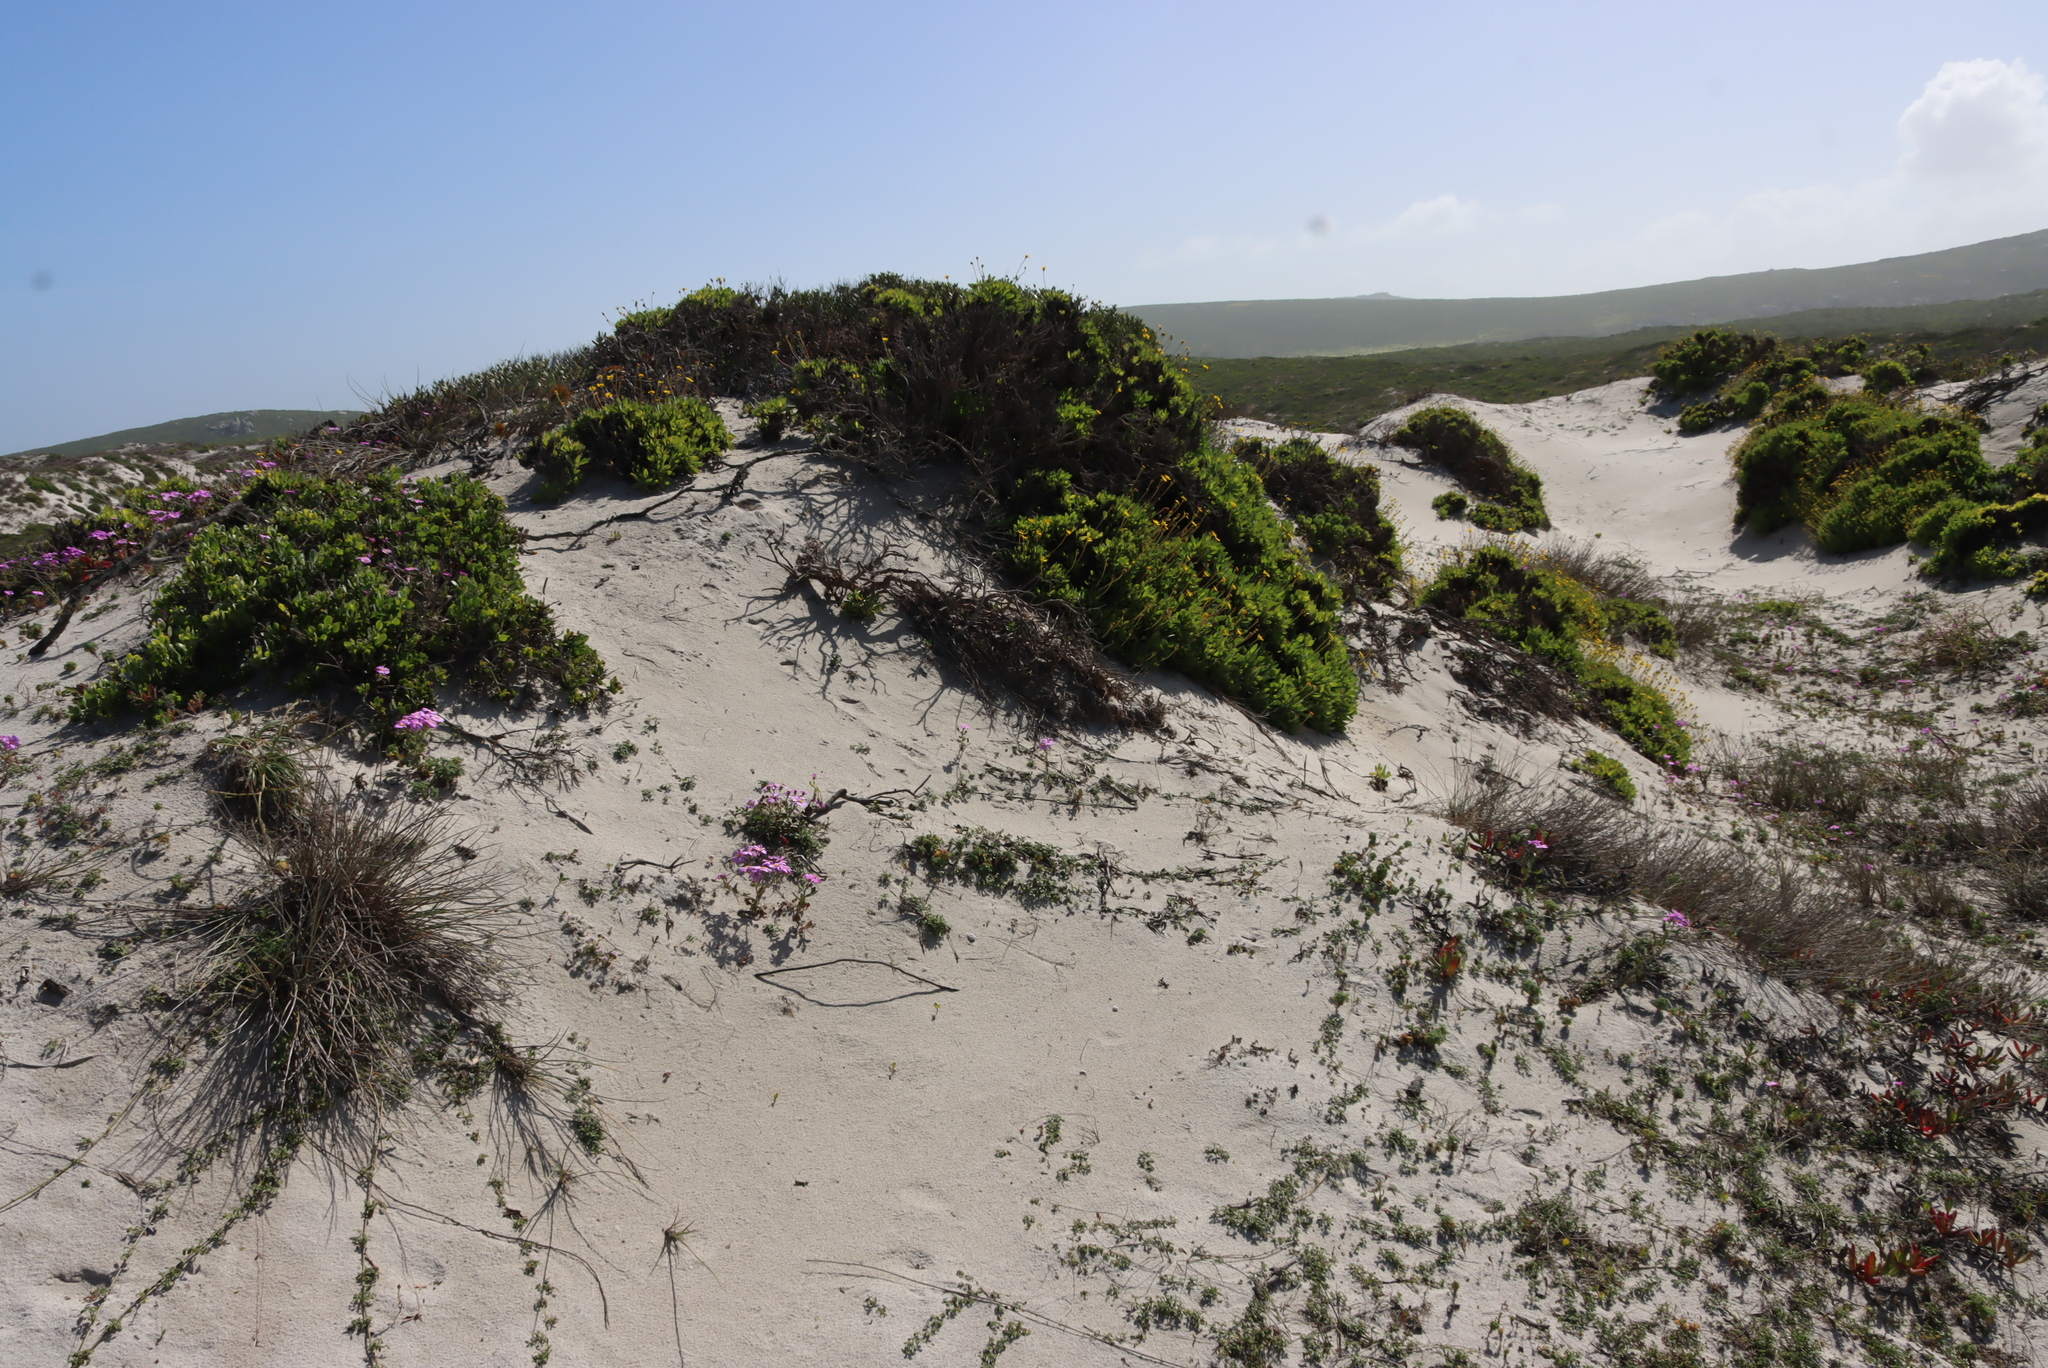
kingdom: Plantae
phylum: Tracheophyta
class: Magnoliopsida
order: Asterales
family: Asteraceae
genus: Othonna
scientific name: Othonna coronopifolia
